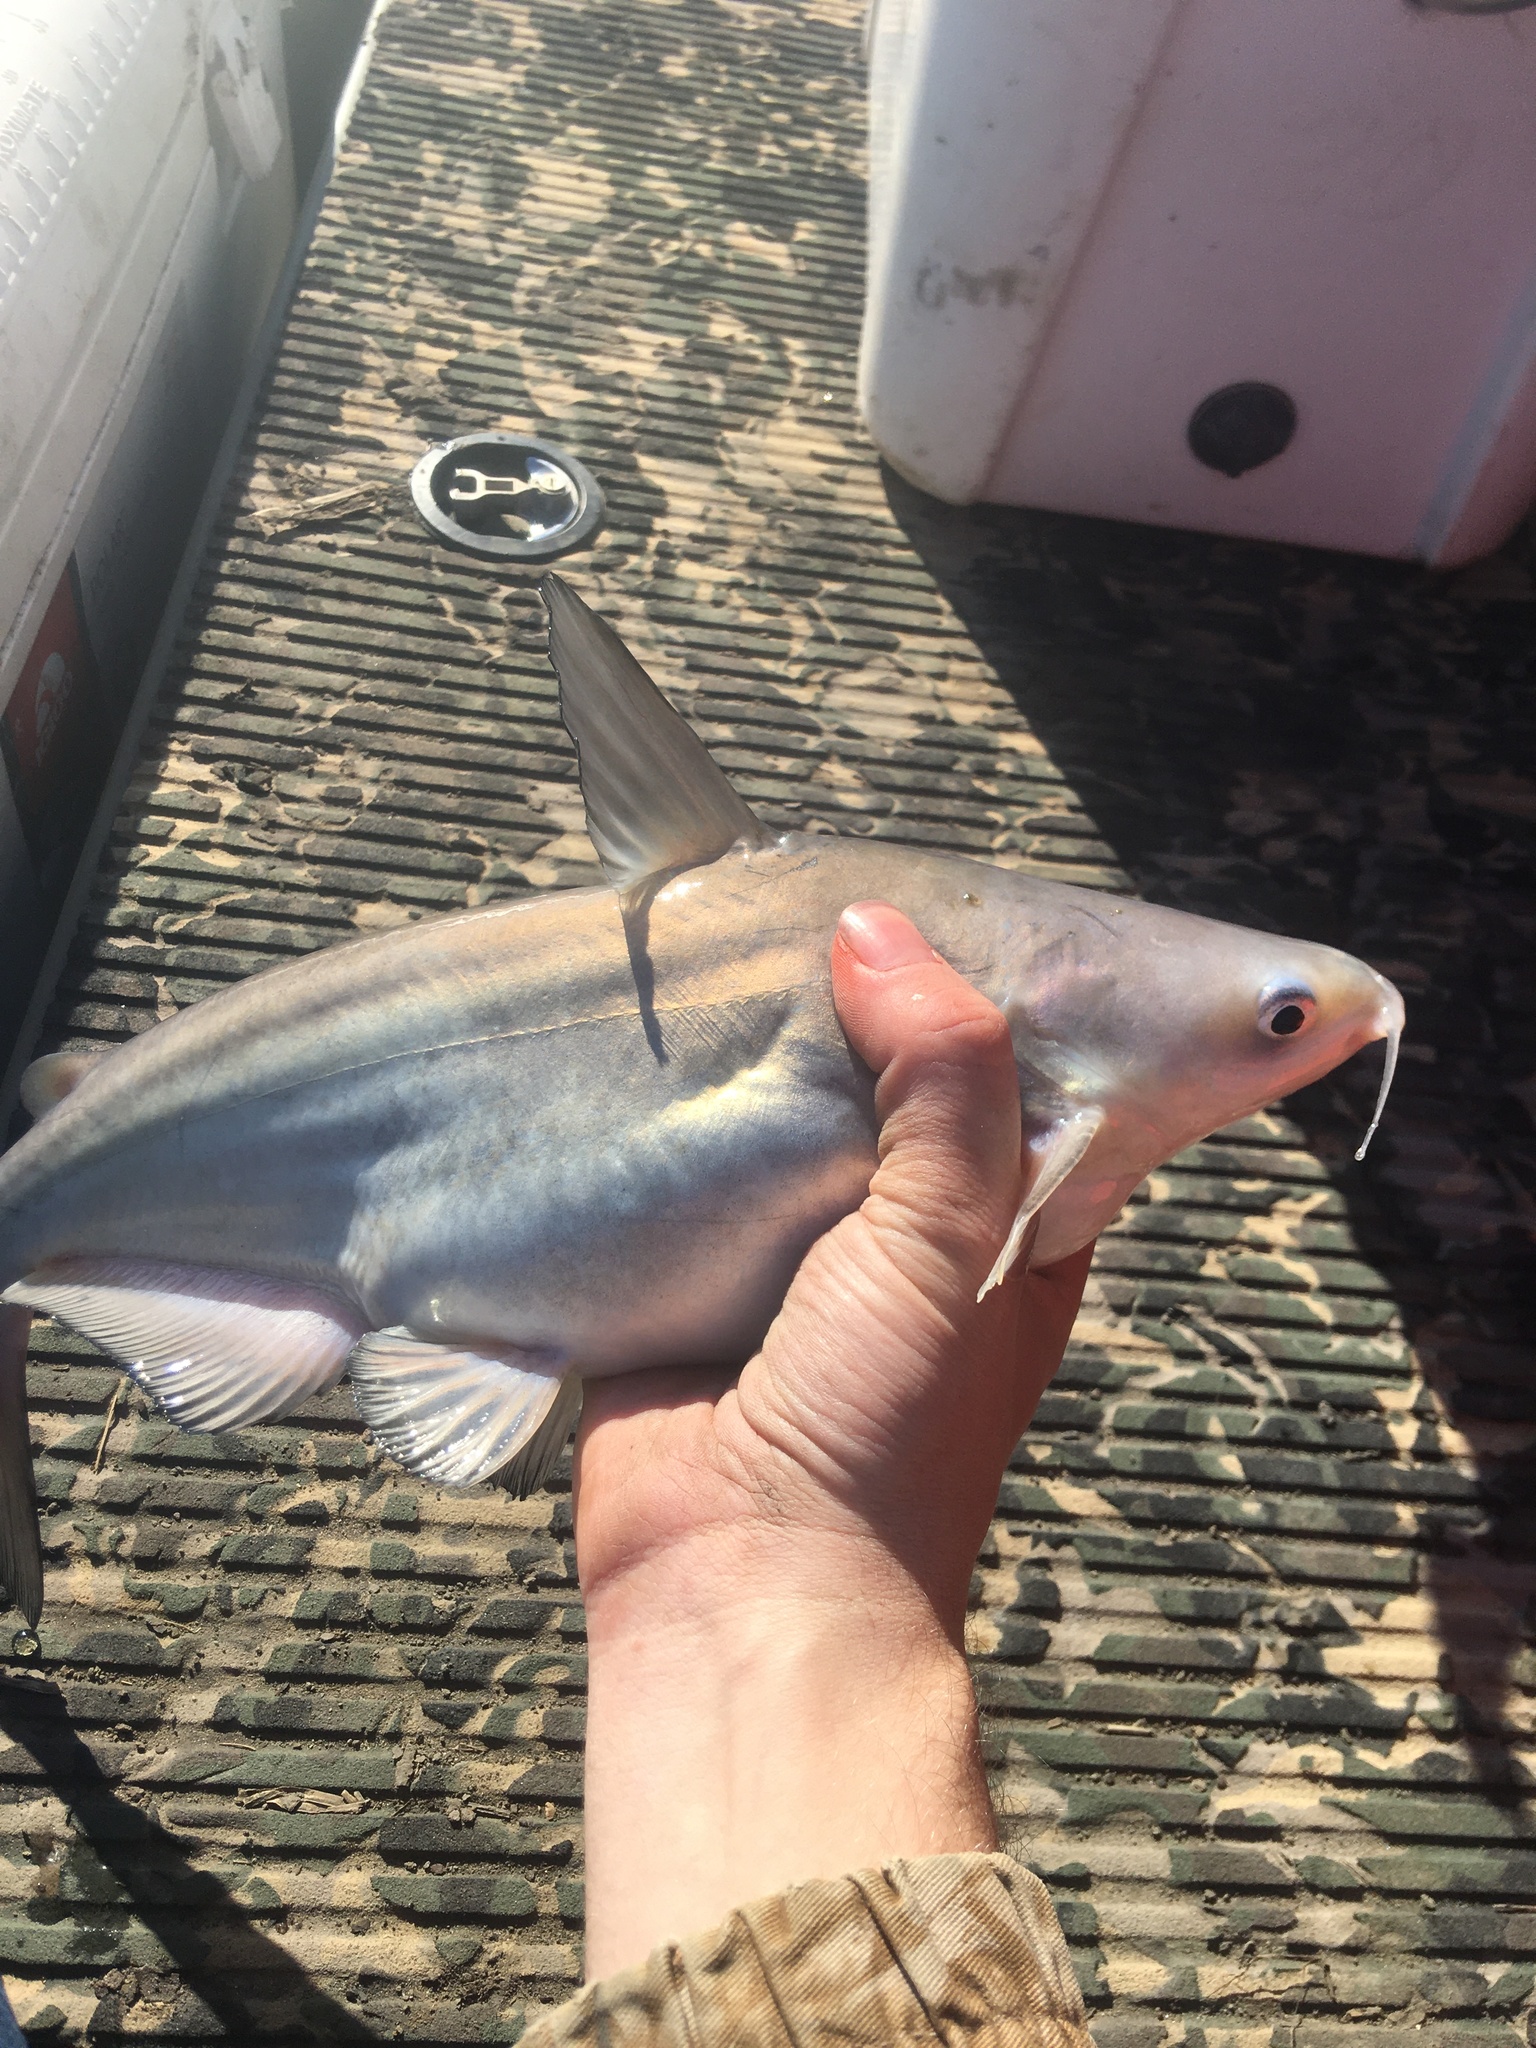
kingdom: Animalia
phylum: Chordata
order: Siluriformes
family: Ictaluridae
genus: Ictalurus
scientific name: Ictalurus furcatus
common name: Blue catfish
